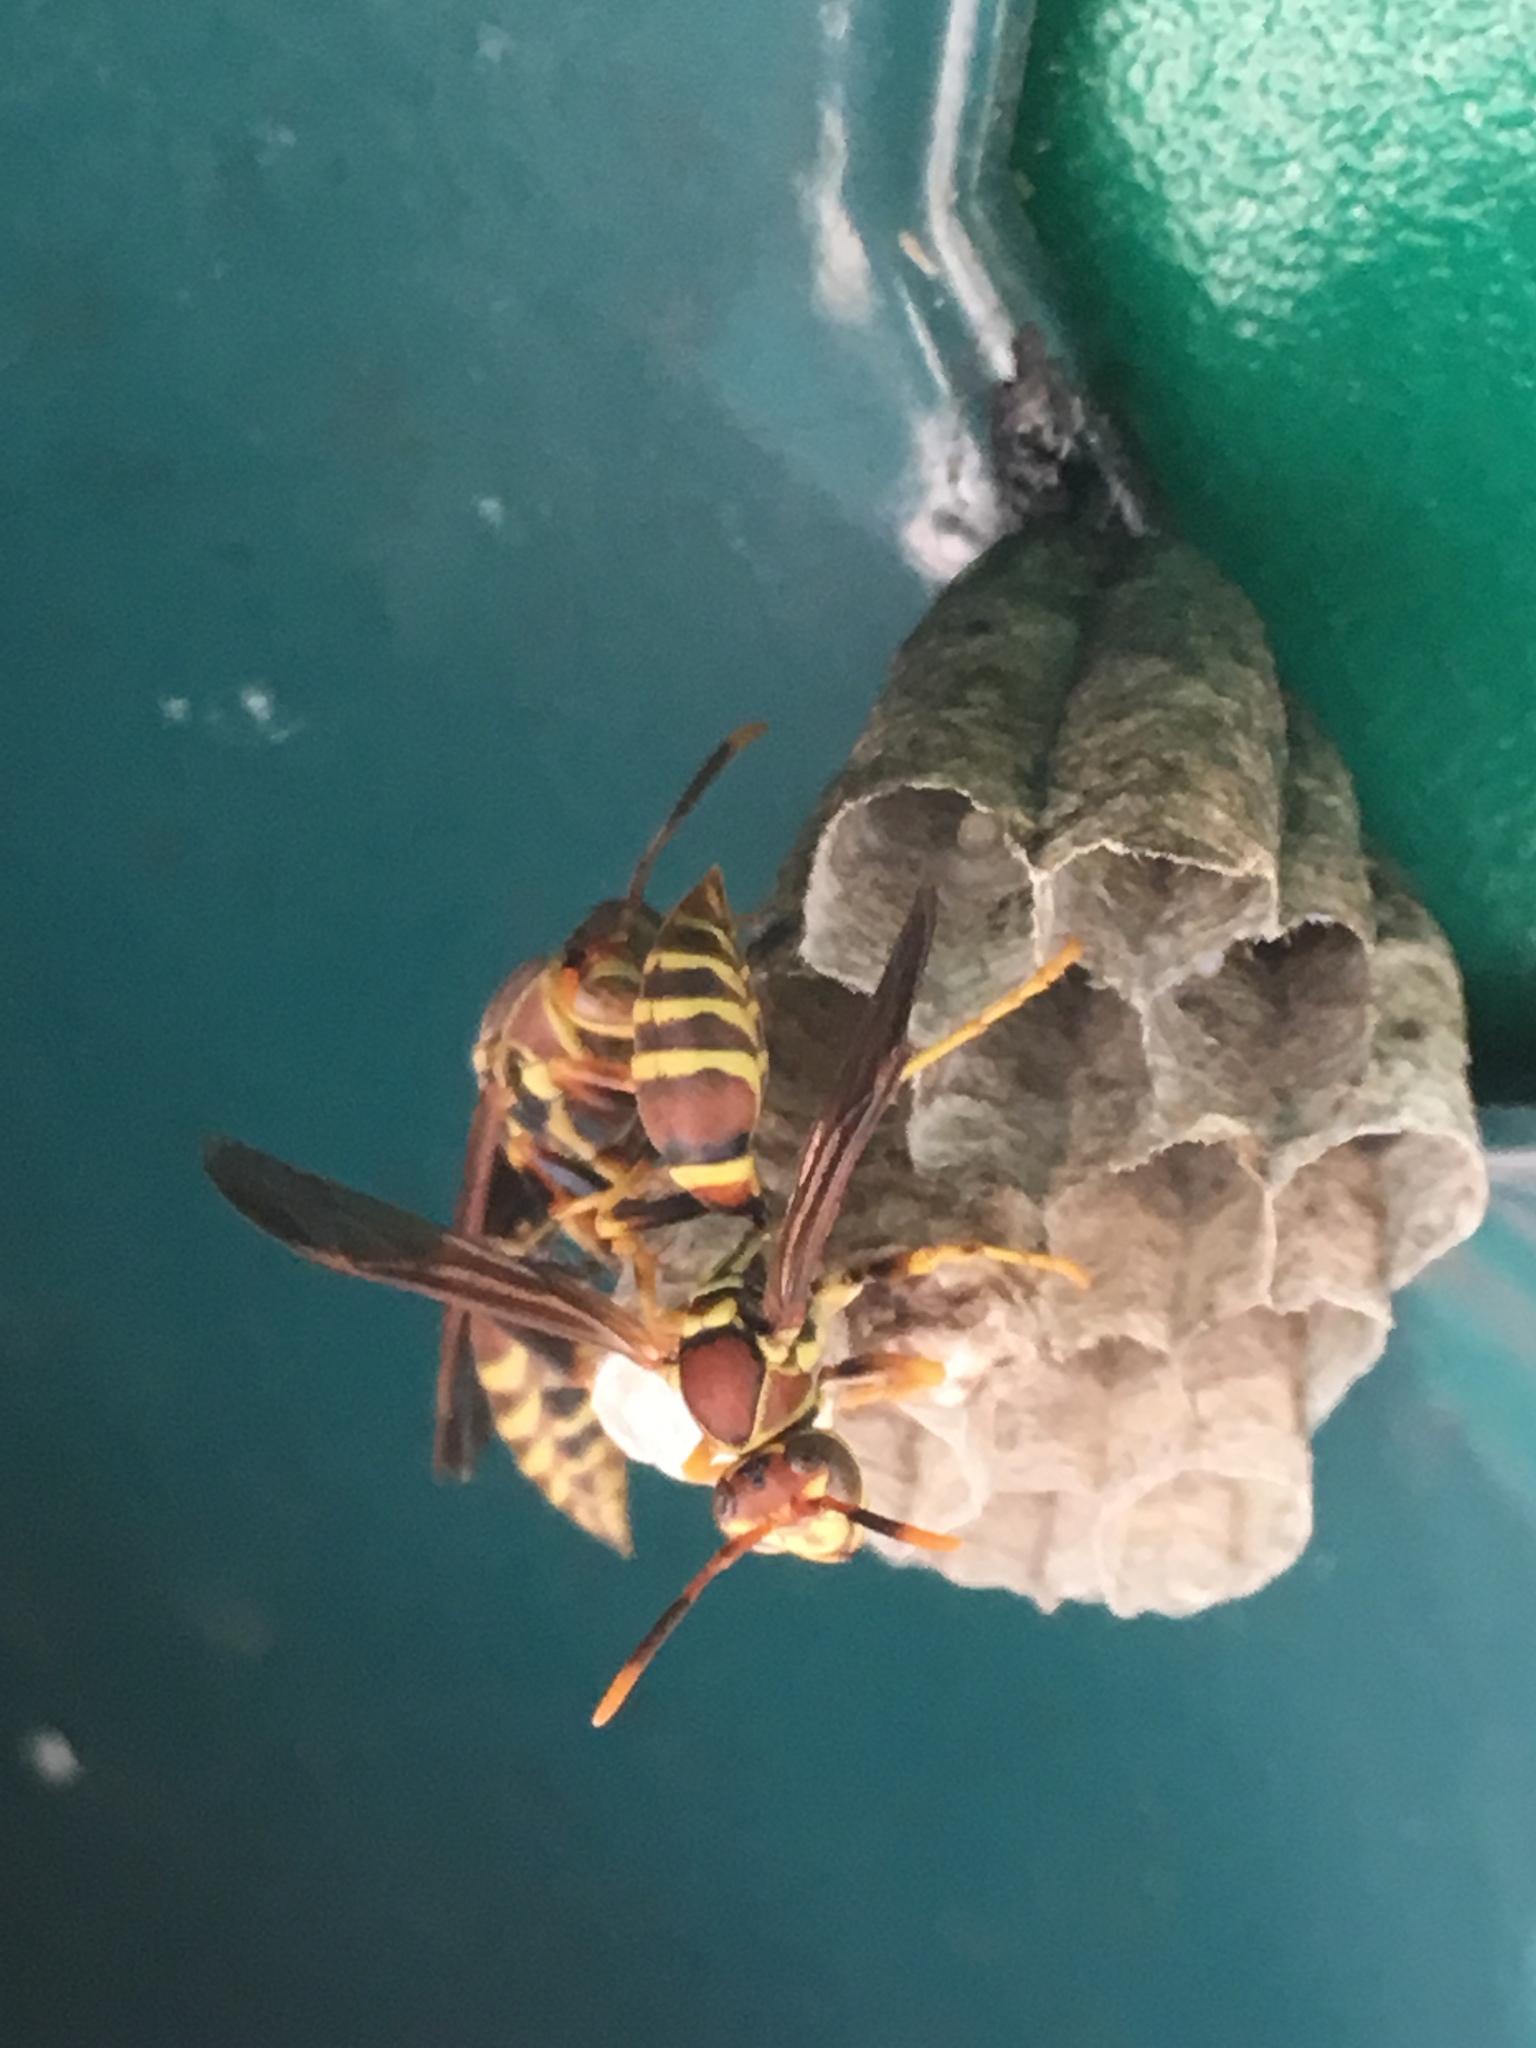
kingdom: Animalia
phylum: Arthropoda
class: Insecta
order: Hymenoptera
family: Eumenidae
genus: Polistes
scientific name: Polistes exclamans
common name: Paper wasp
